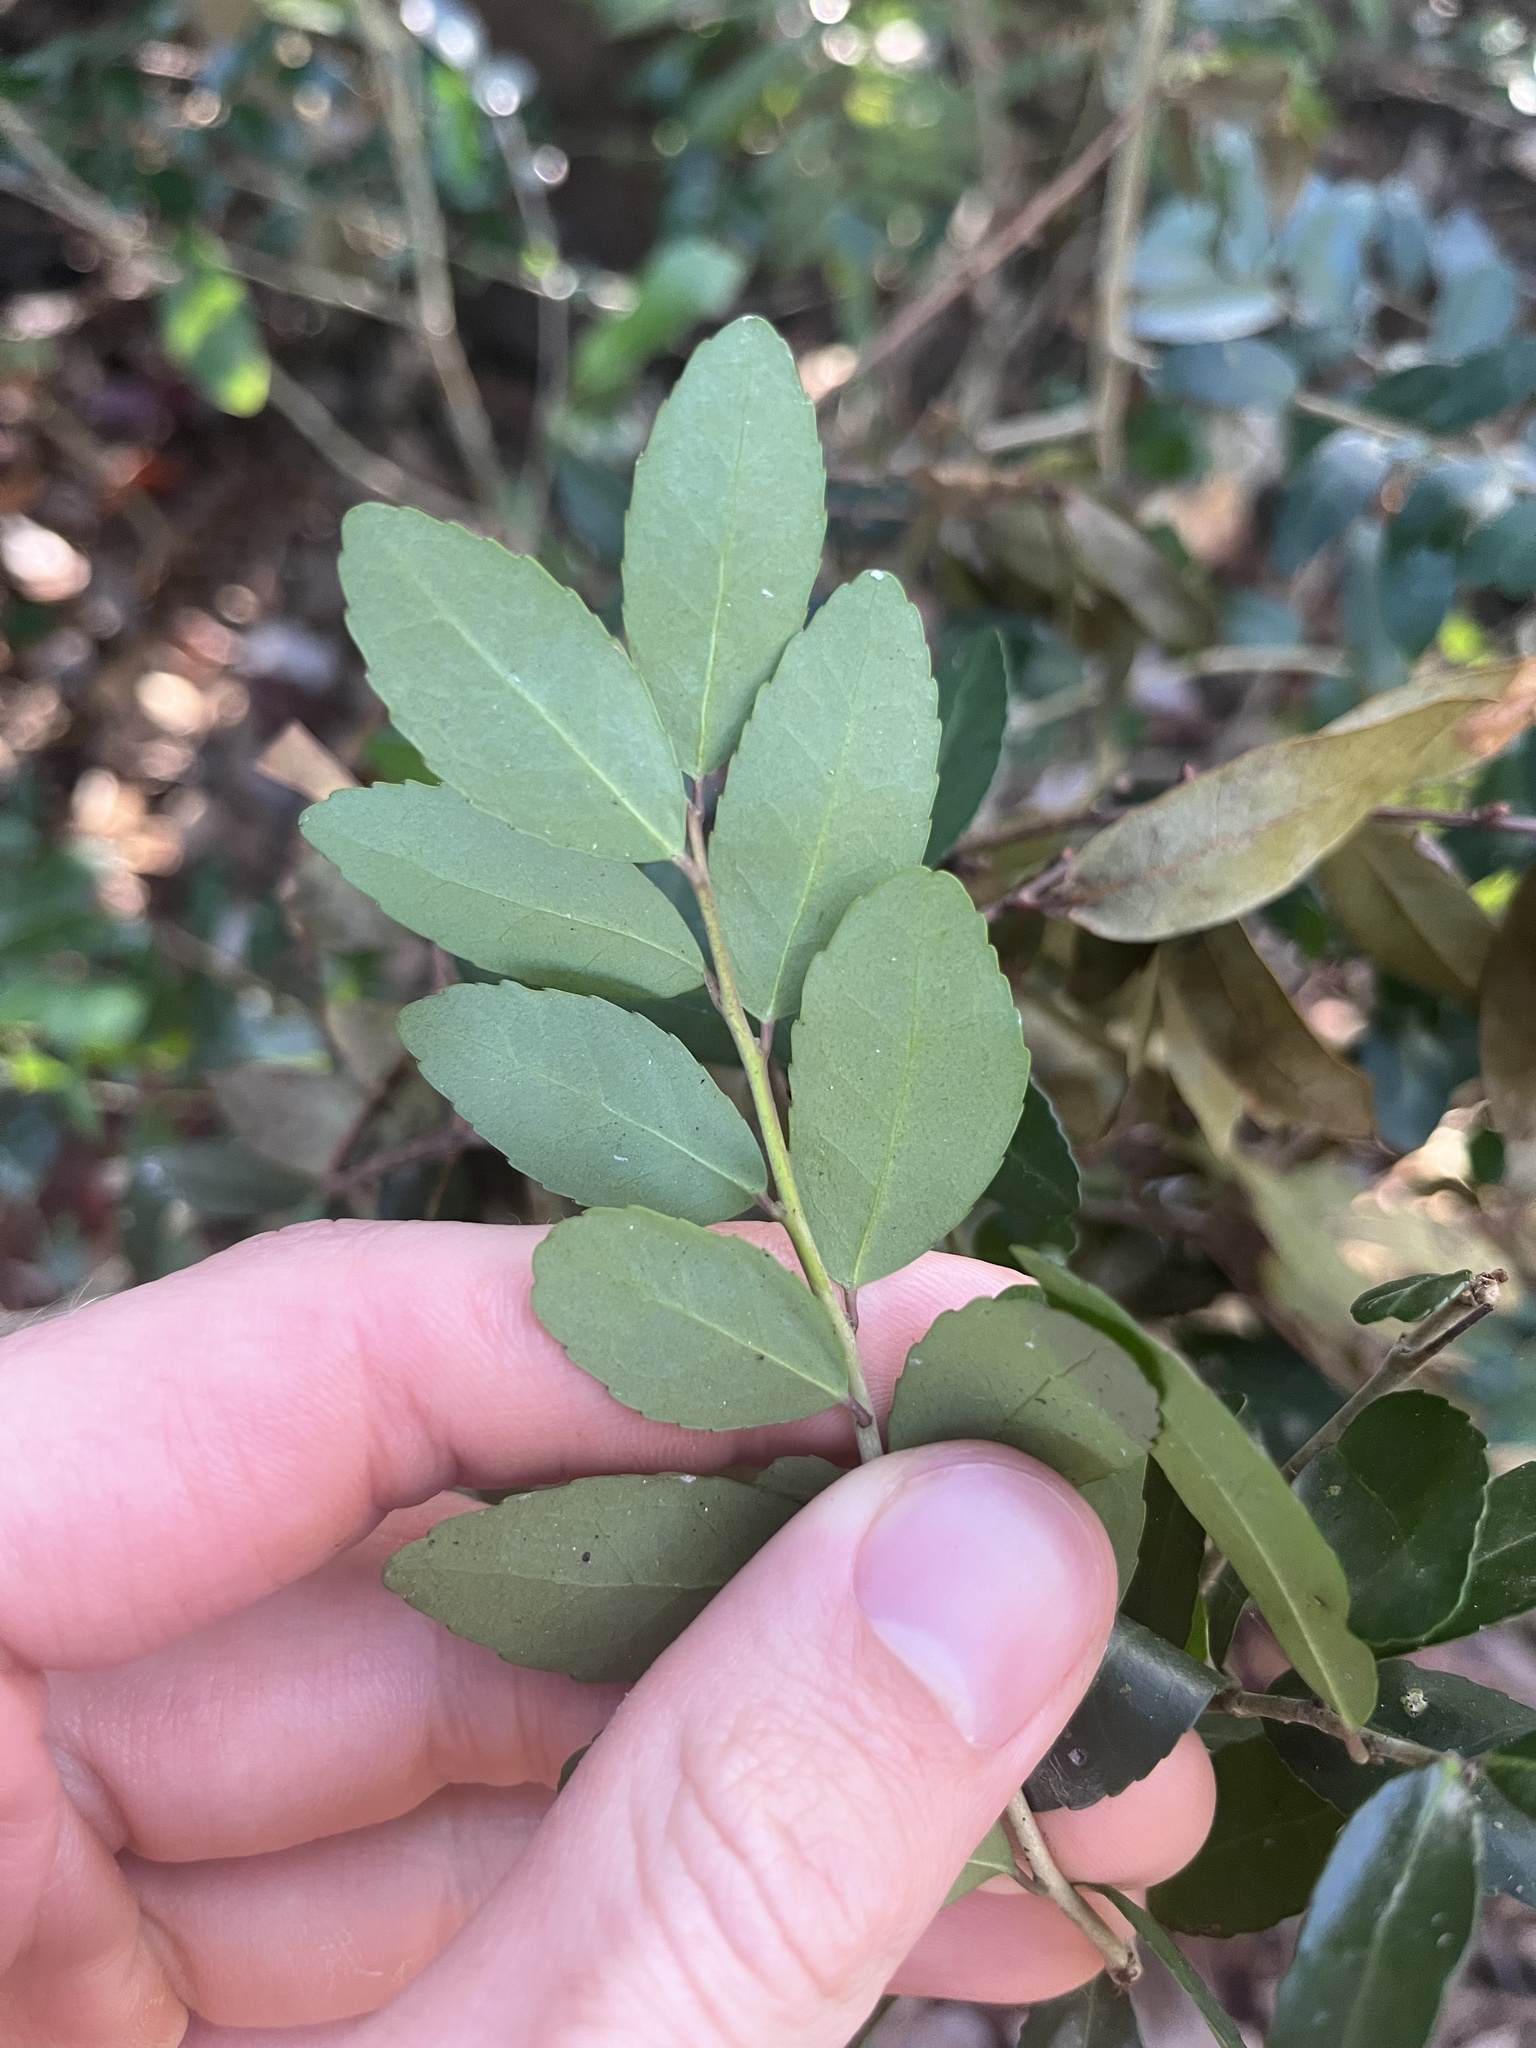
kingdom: Plantae
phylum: Tracheophyta
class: Magnoliopsida
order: Aquifoliales
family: Aquifoliaceae
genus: Ilex
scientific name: Ilex vomitoria
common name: Yaupon holly
